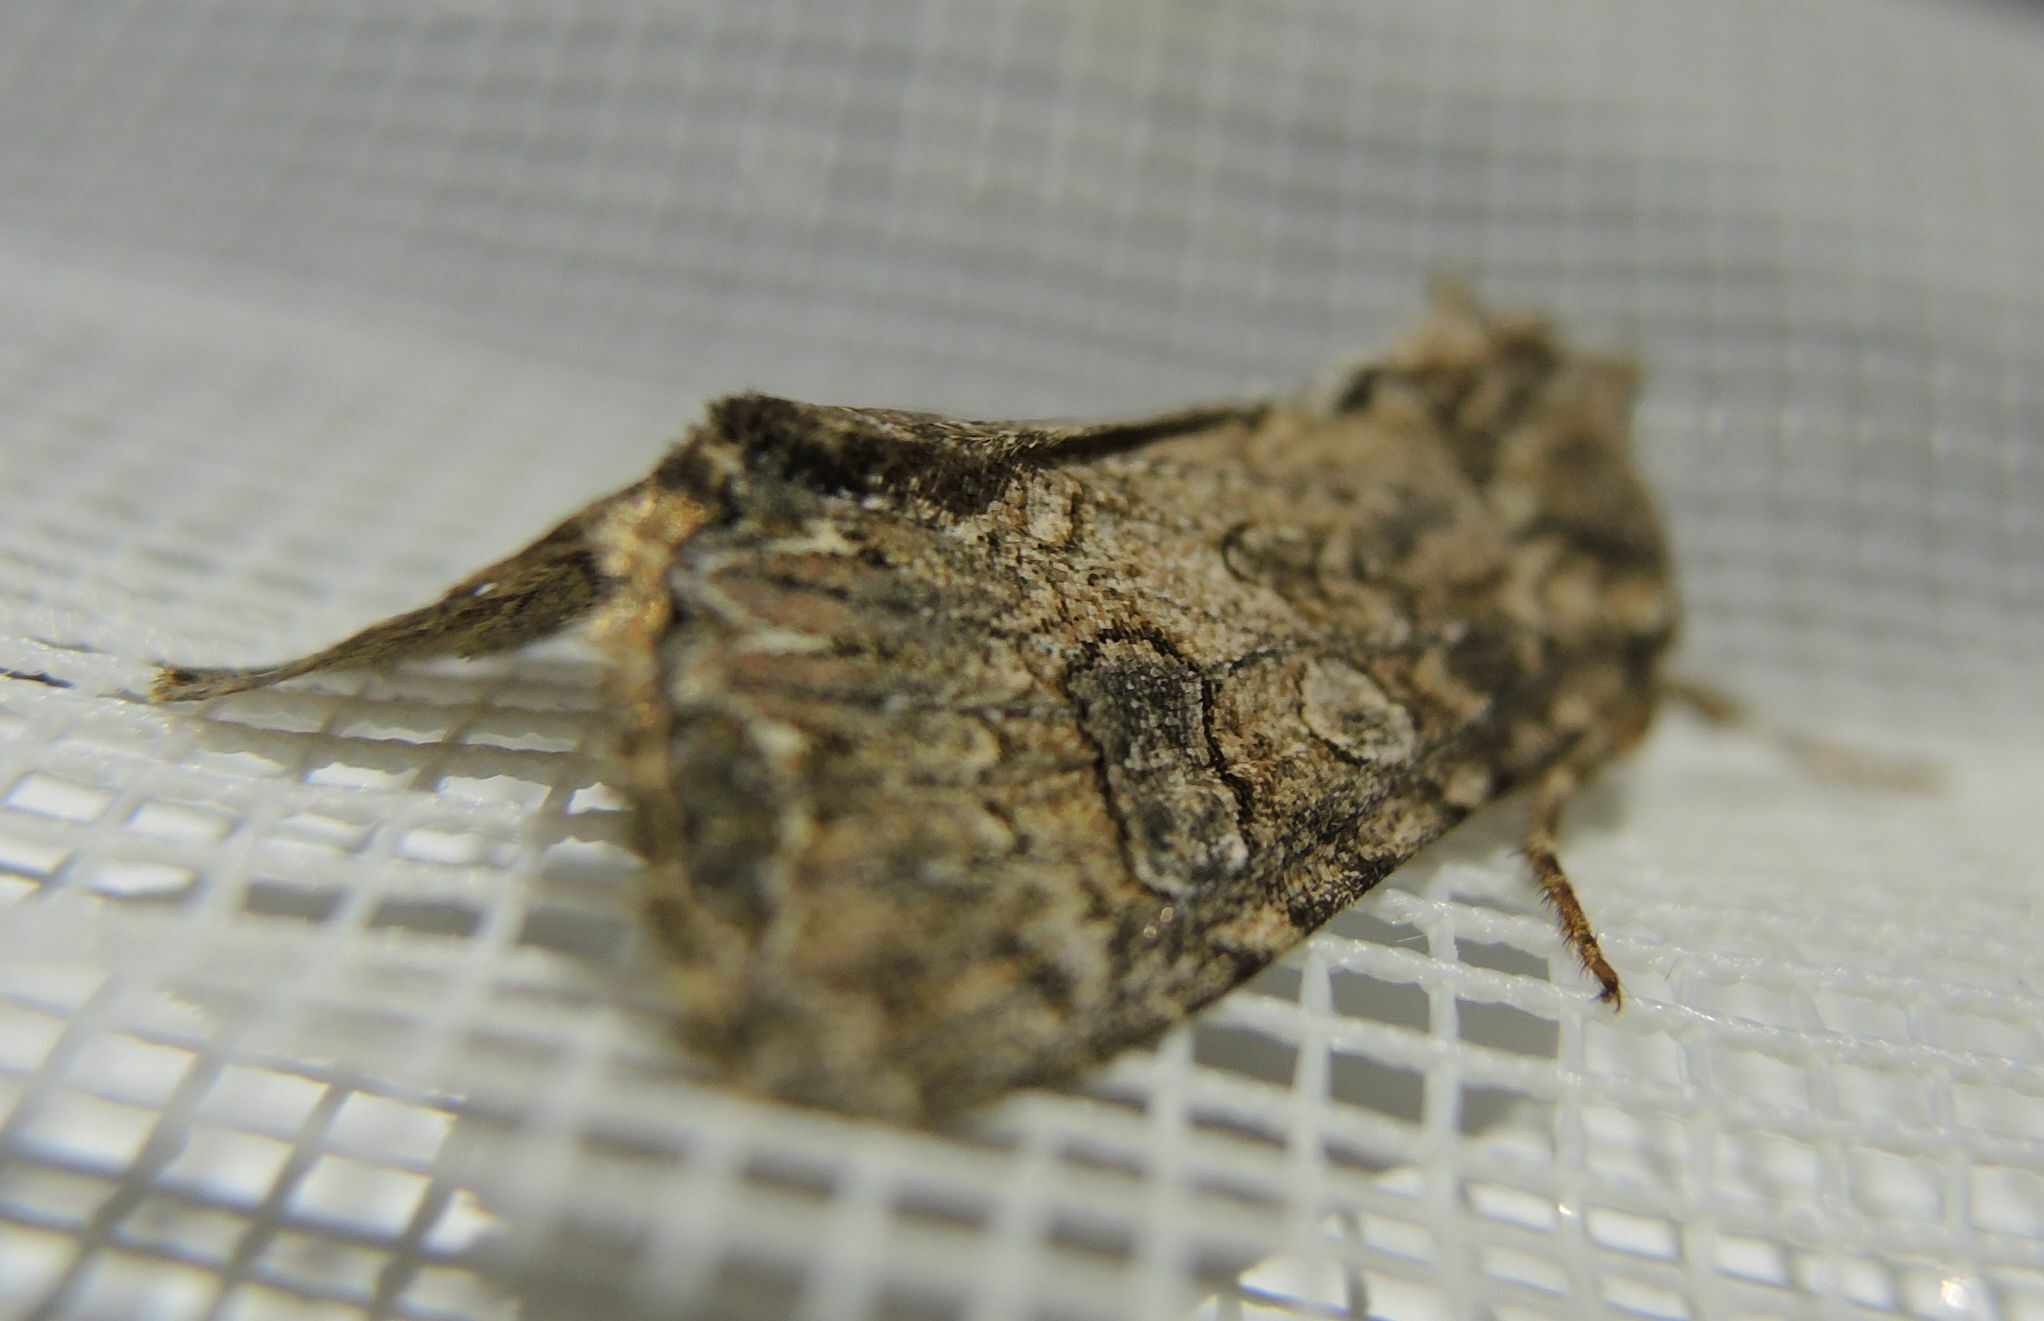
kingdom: Animalia
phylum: Arthropoda
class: Insecta
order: Lepidoptera
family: Noctuidae
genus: Anarta
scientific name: Anarta trifolii
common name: Clover cutworm moth
